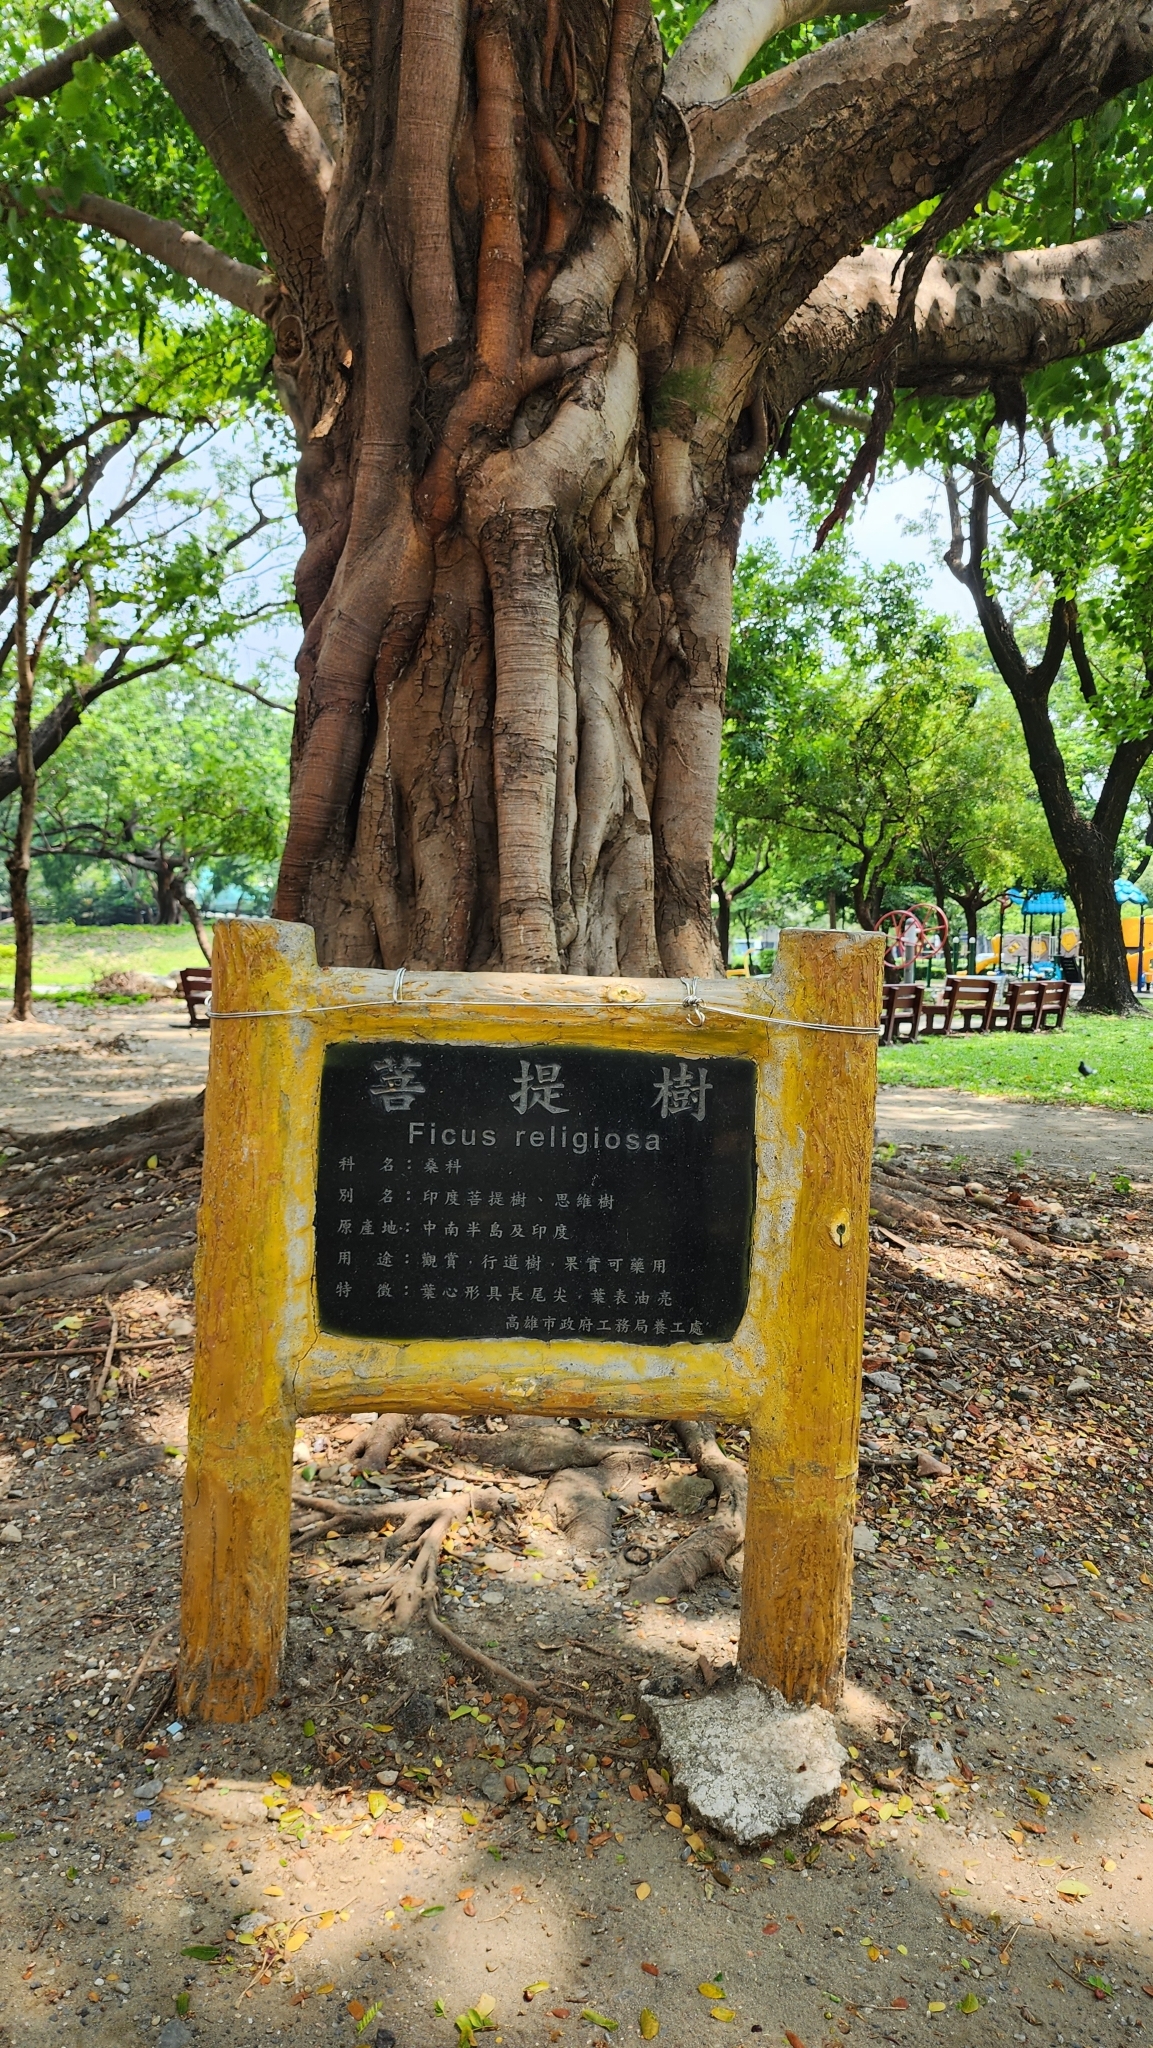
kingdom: Plantae
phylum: Tracheophyta
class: Magnoliopsida
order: Rosales
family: Moraceae
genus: Ficus
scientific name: Ficus religiosa
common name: Bodhi tree
